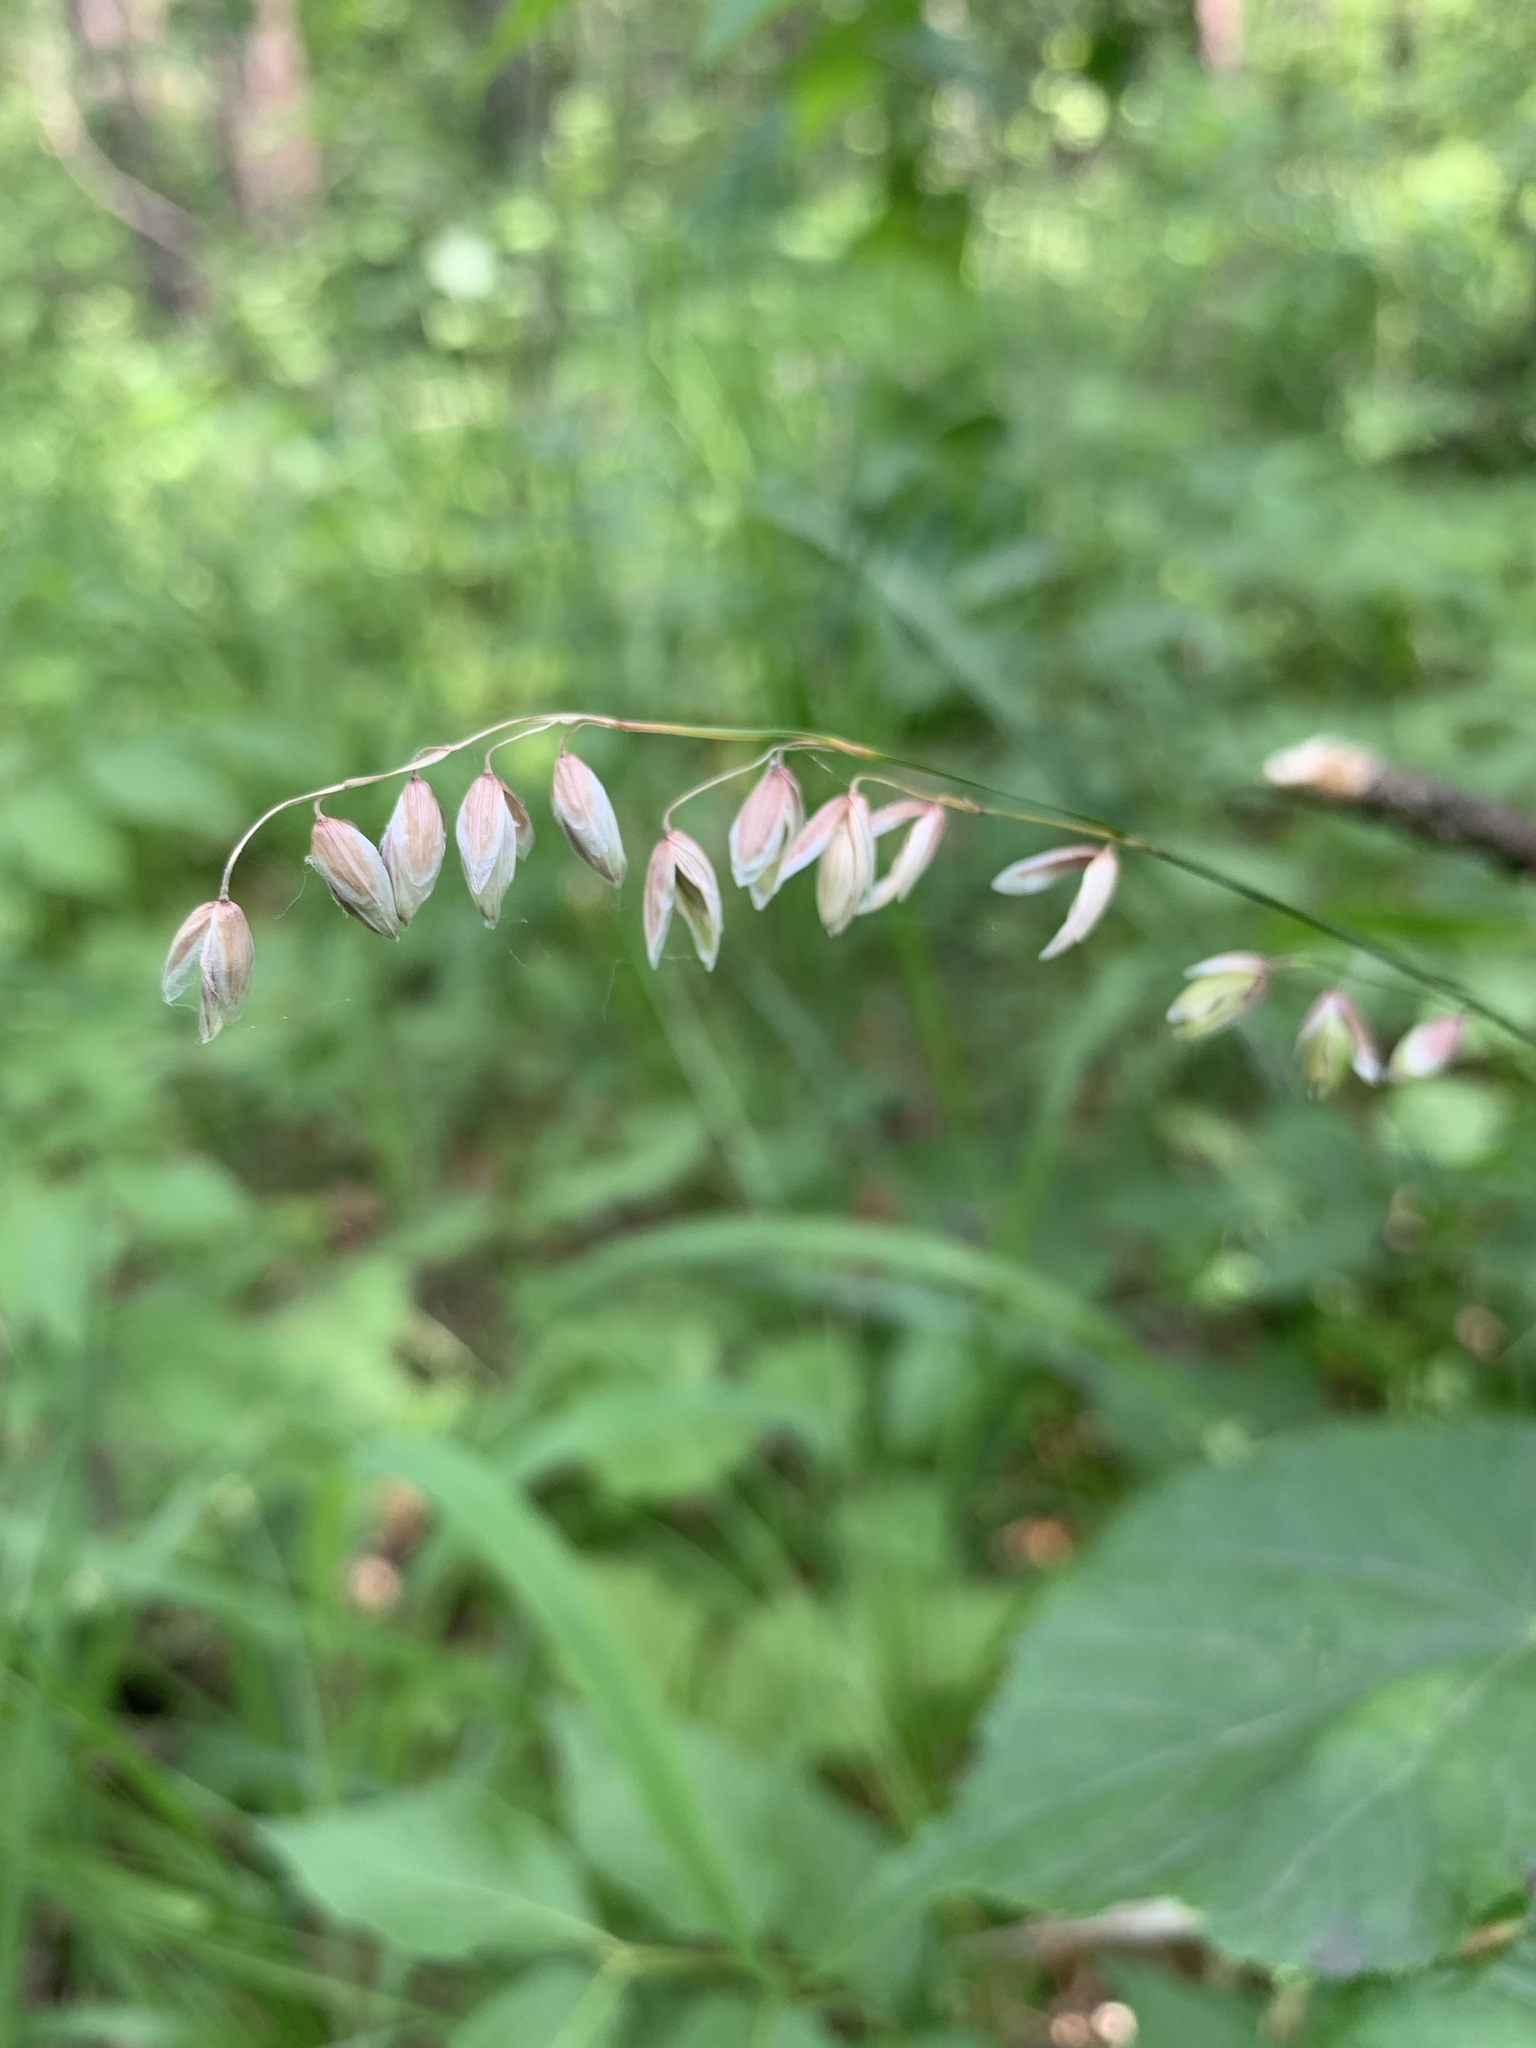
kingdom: Plantae
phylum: Tracheophyta
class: Liliopsida
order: Poales
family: Poaceae
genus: Melica
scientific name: Melica nutans
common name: Mountain melick
